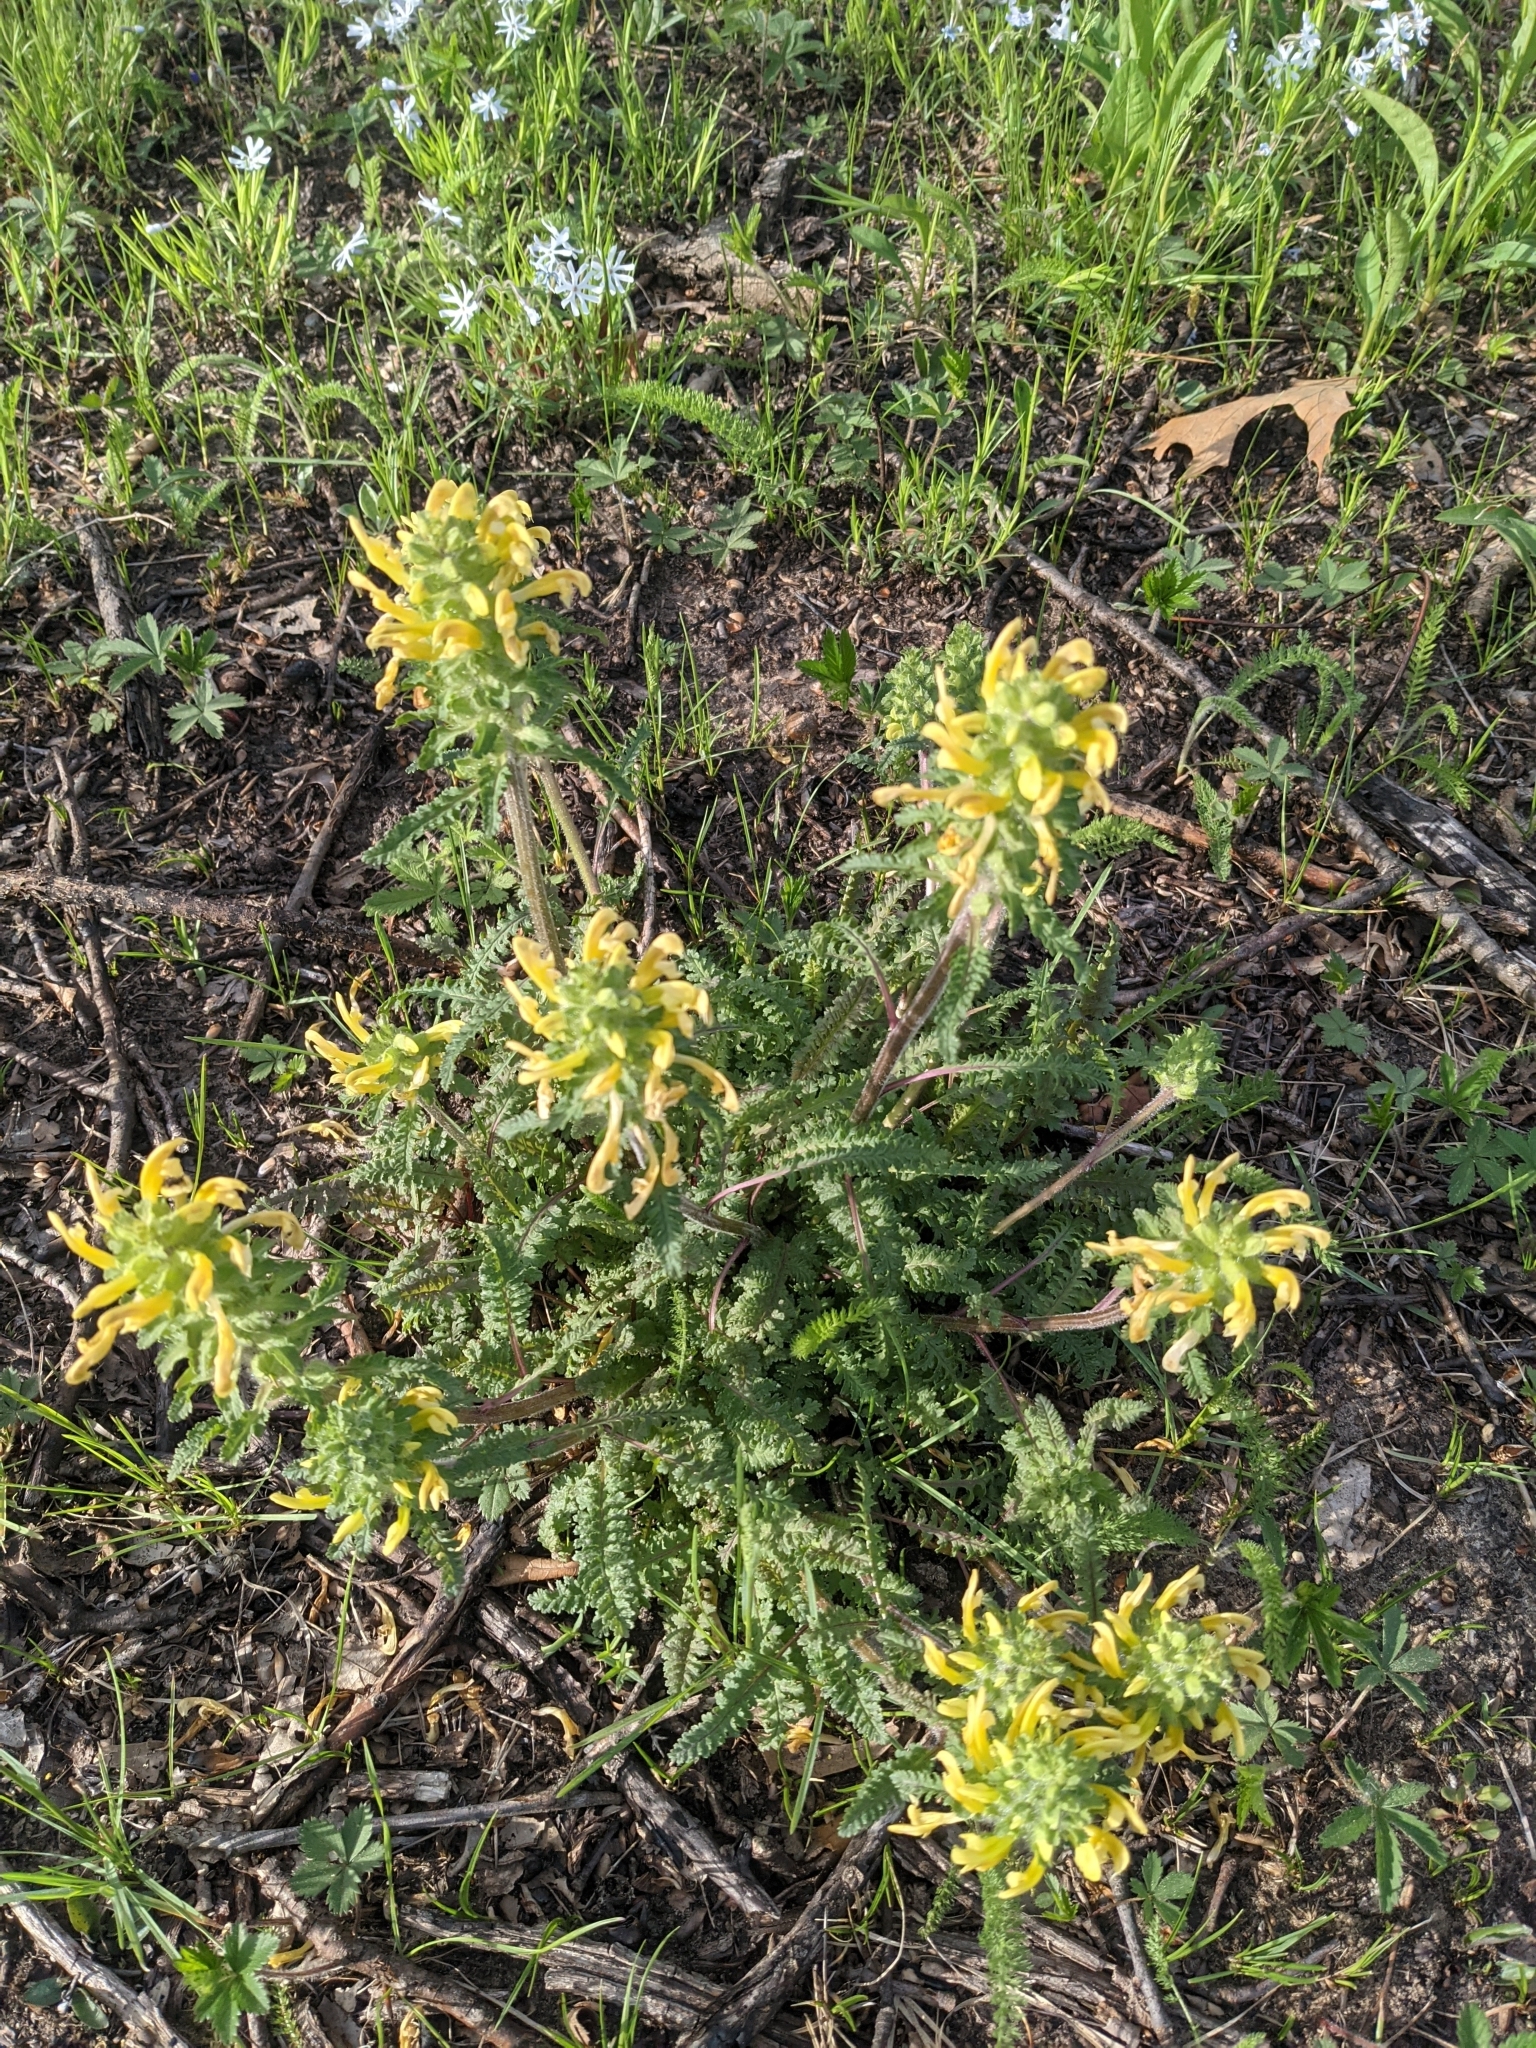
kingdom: Plantae
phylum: Tracheophyta
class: Magnoliopsida
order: Lamiales
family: Orobanchaceae
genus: Pedicularis
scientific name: Pedicularis canadensis
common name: Early lousewort
